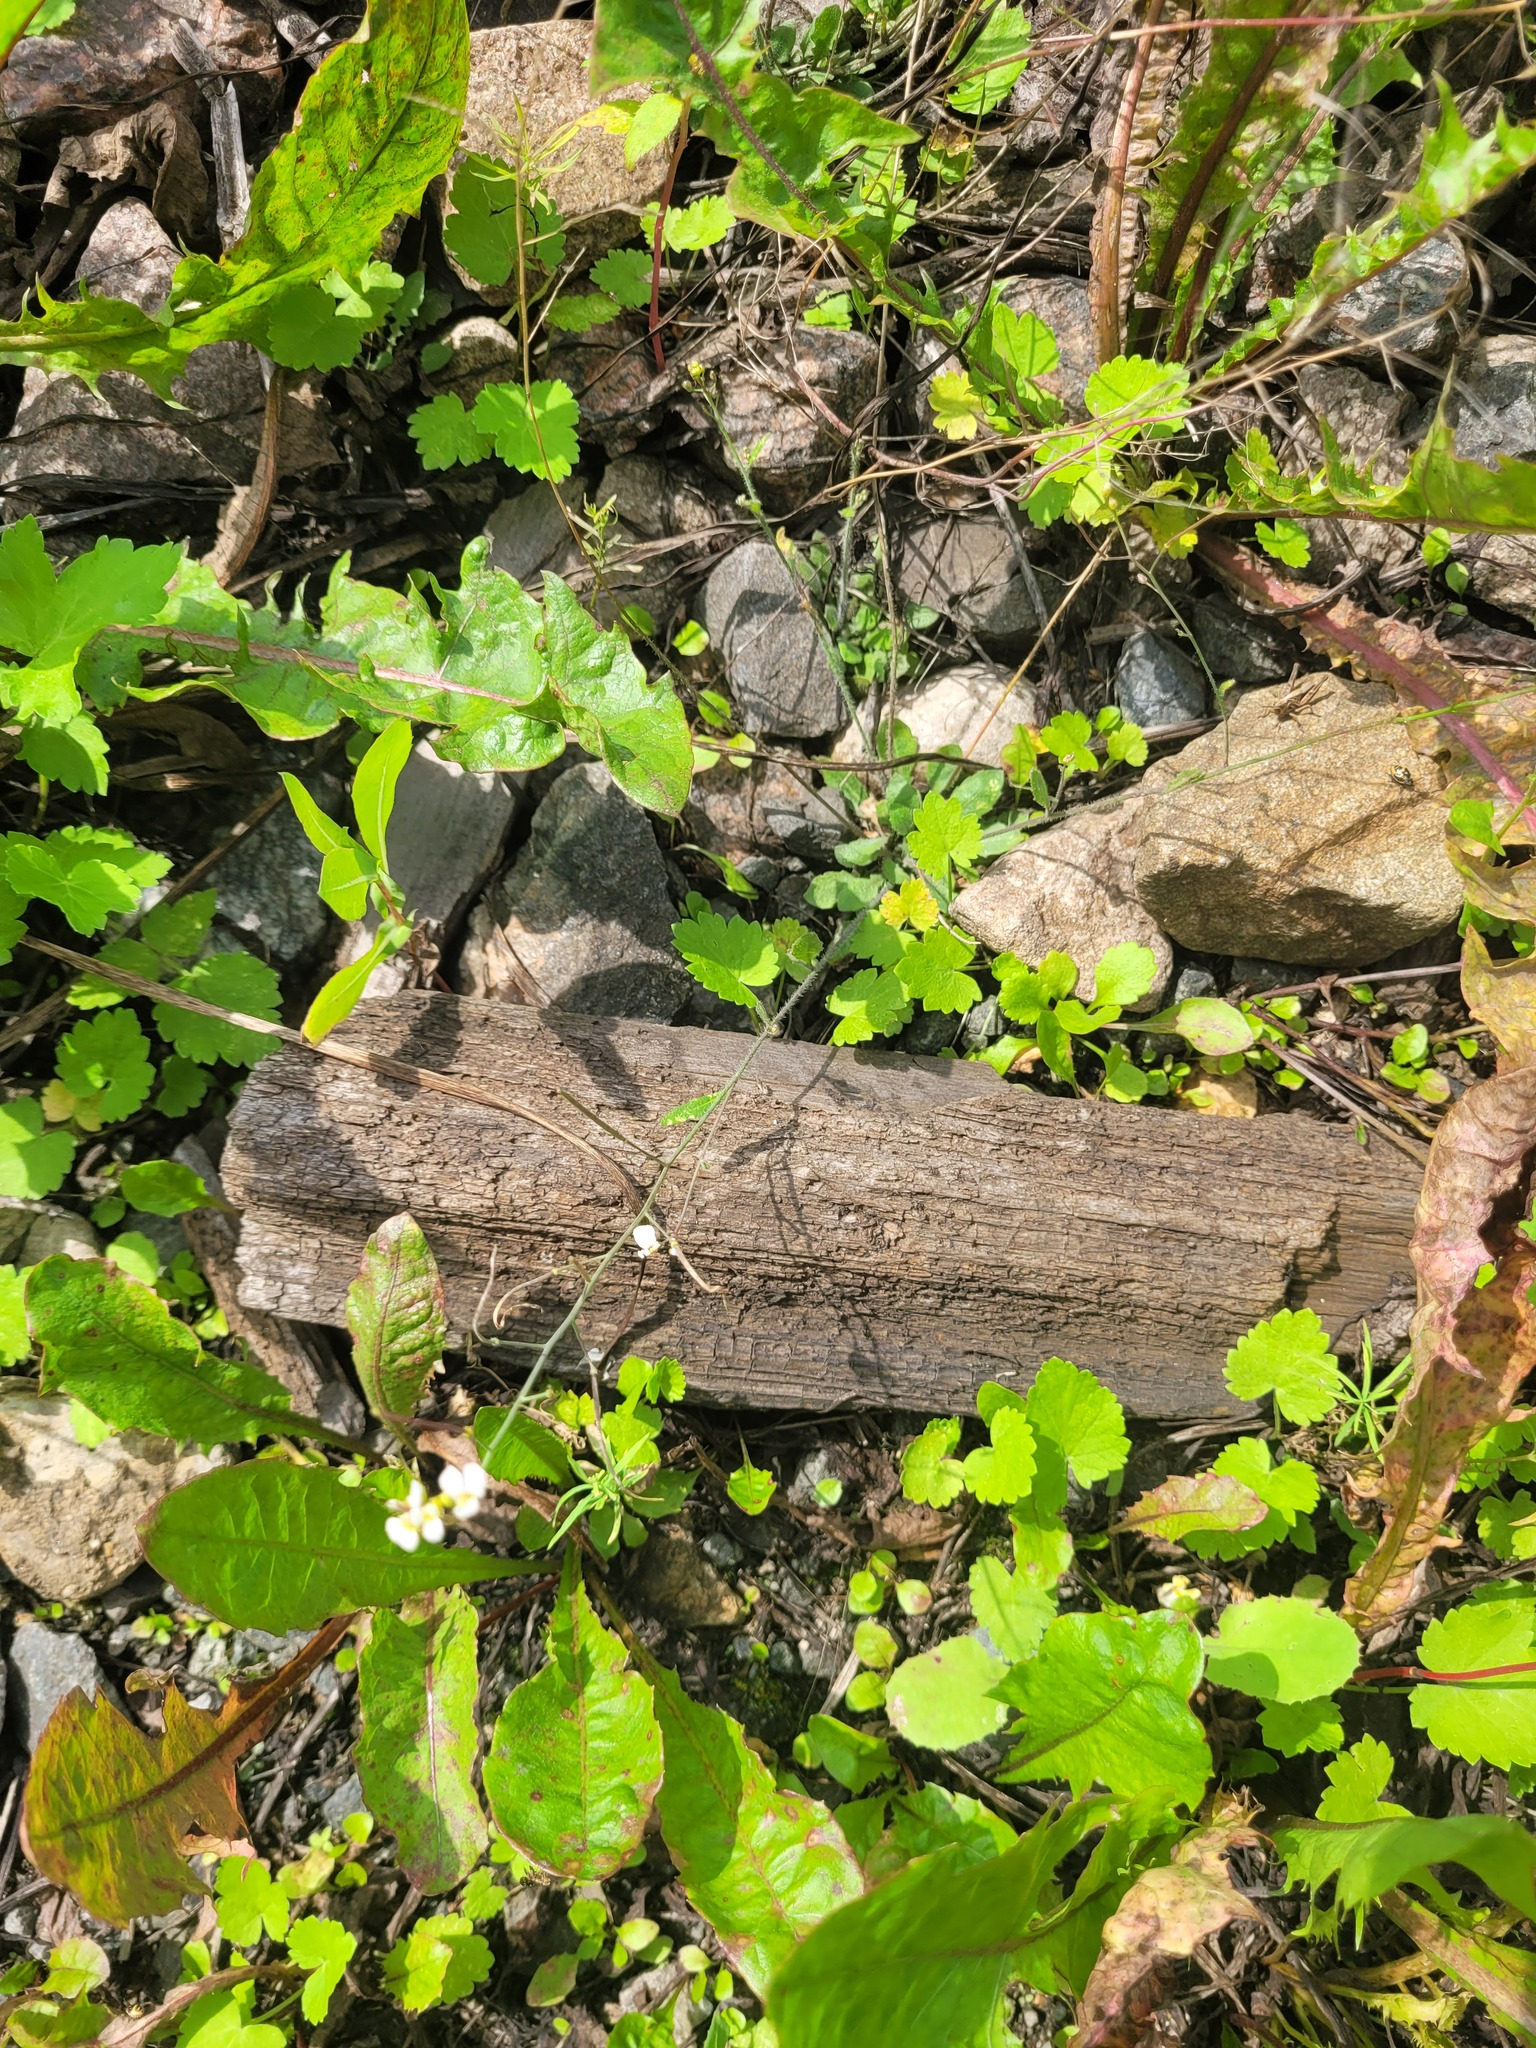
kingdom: Plantae
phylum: Tracheophyta
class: Magnoliopsida
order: Brassicales
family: Brassicaceae
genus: Arabidopsis
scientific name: Arabidopsis arenosa
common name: Sand rock-cress
